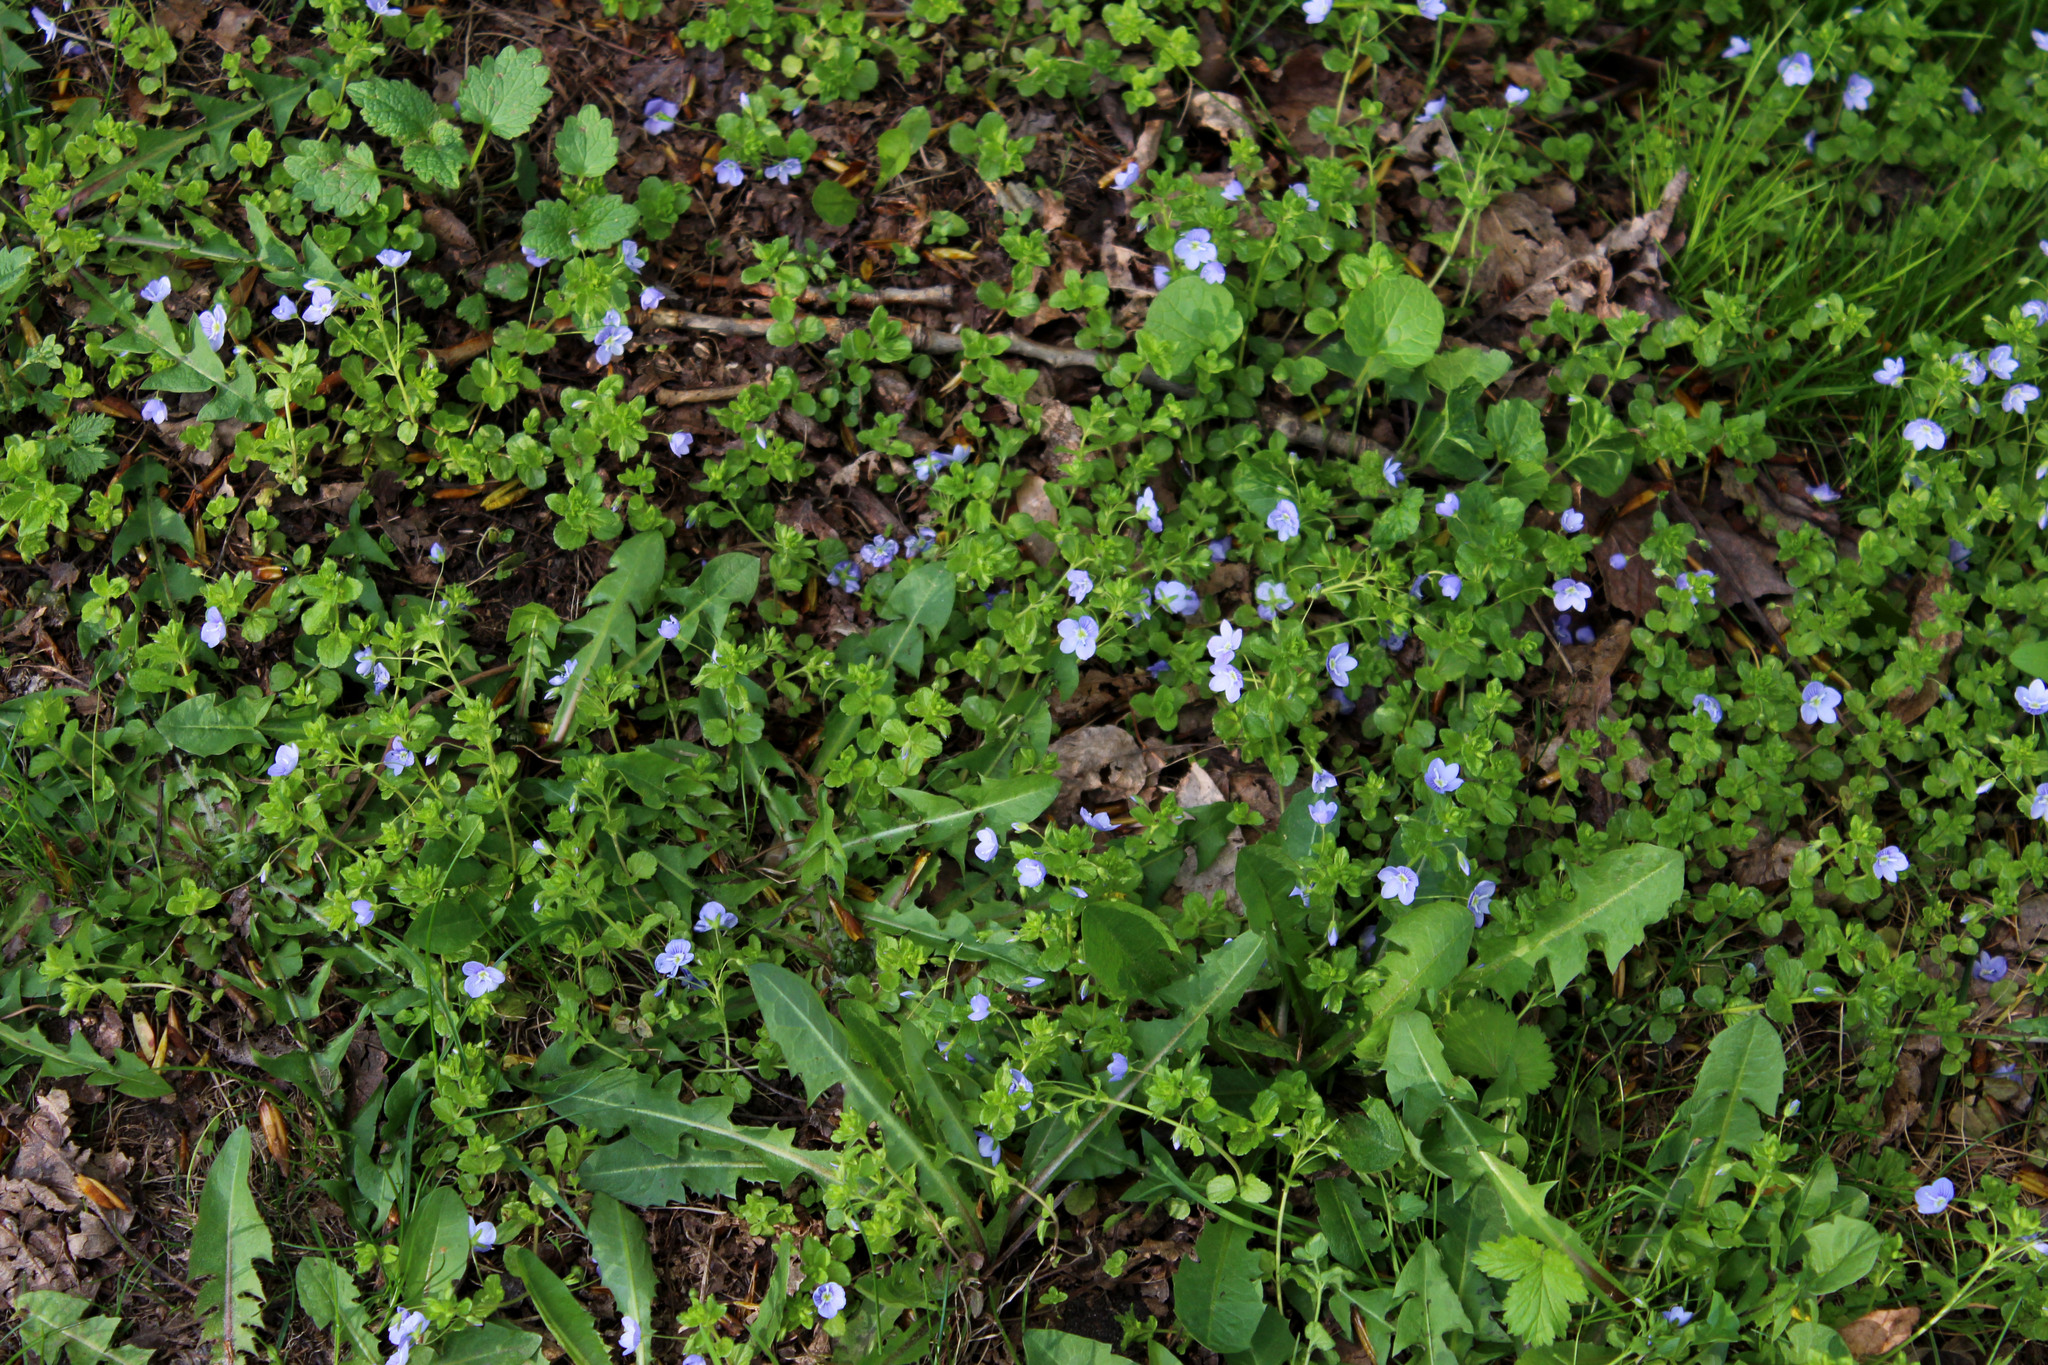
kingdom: Plantae
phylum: Tracheophyta
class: Magnoliopsida
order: Lamiales
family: Plantaginaceae
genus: Veronica
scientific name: Veronica filiformis
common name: Slender speedwell
